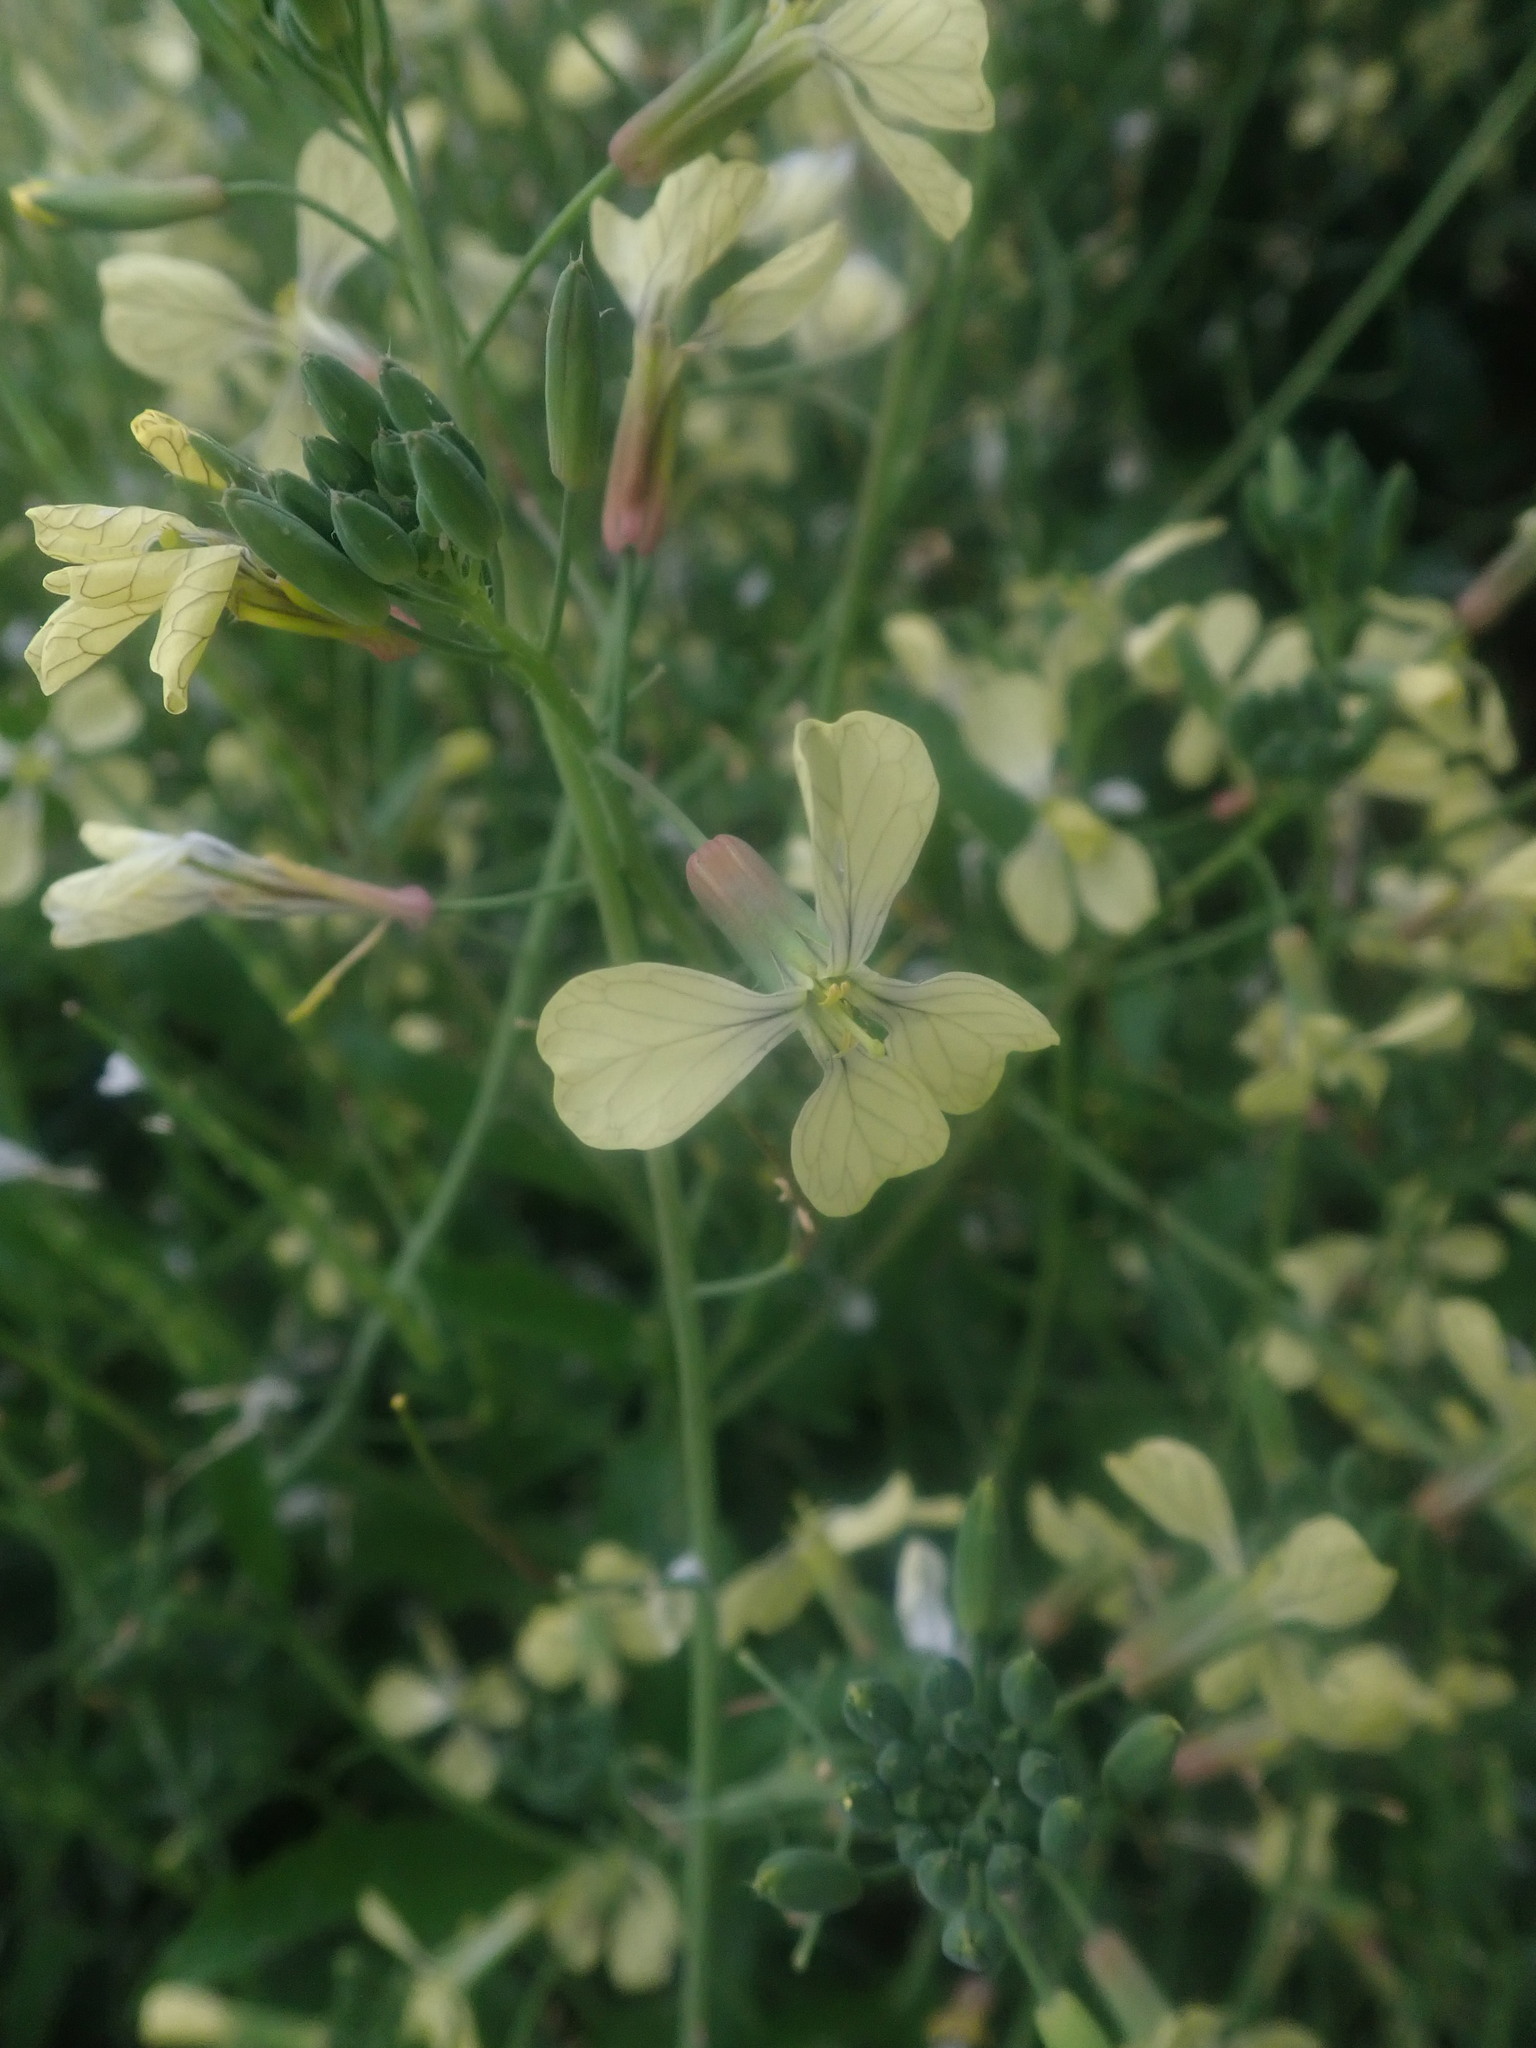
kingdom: Plantae
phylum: Tracheophyta
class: Magnoliopsida
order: Brassicales
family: Brassicaceae
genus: Raphanus
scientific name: Raphanus raphanistrum
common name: Wild radish
